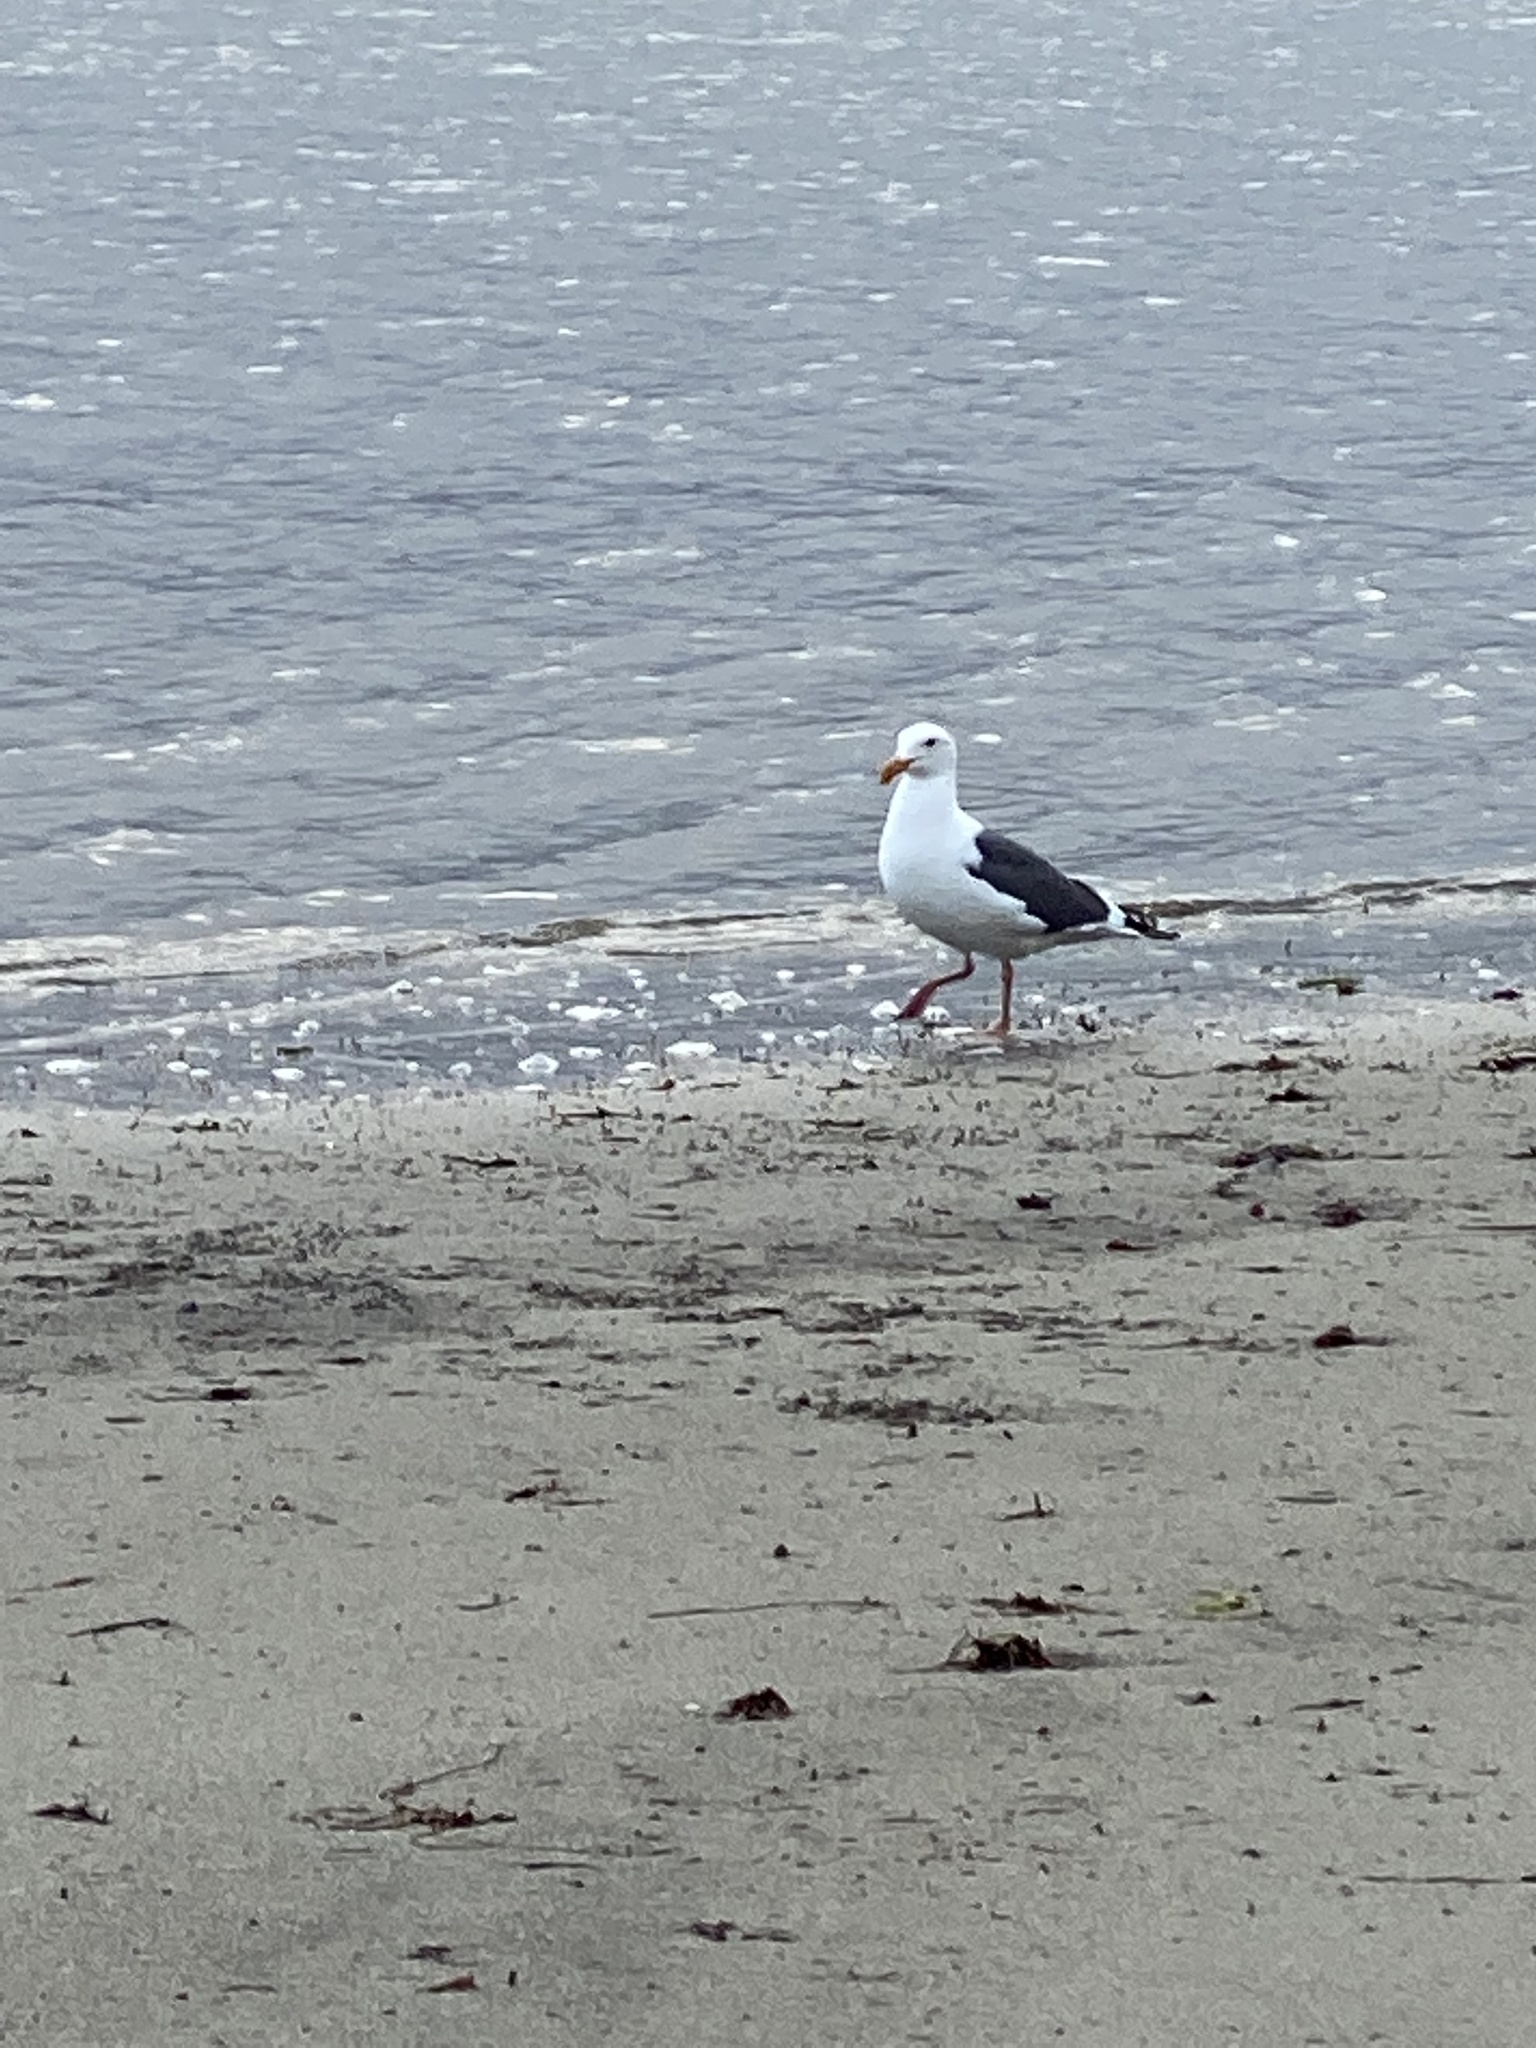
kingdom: Animalia
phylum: Chordata
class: Aves
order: Charadriiformes
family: Laridae
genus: Larus
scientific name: Larus occidentalis
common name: Western gull
